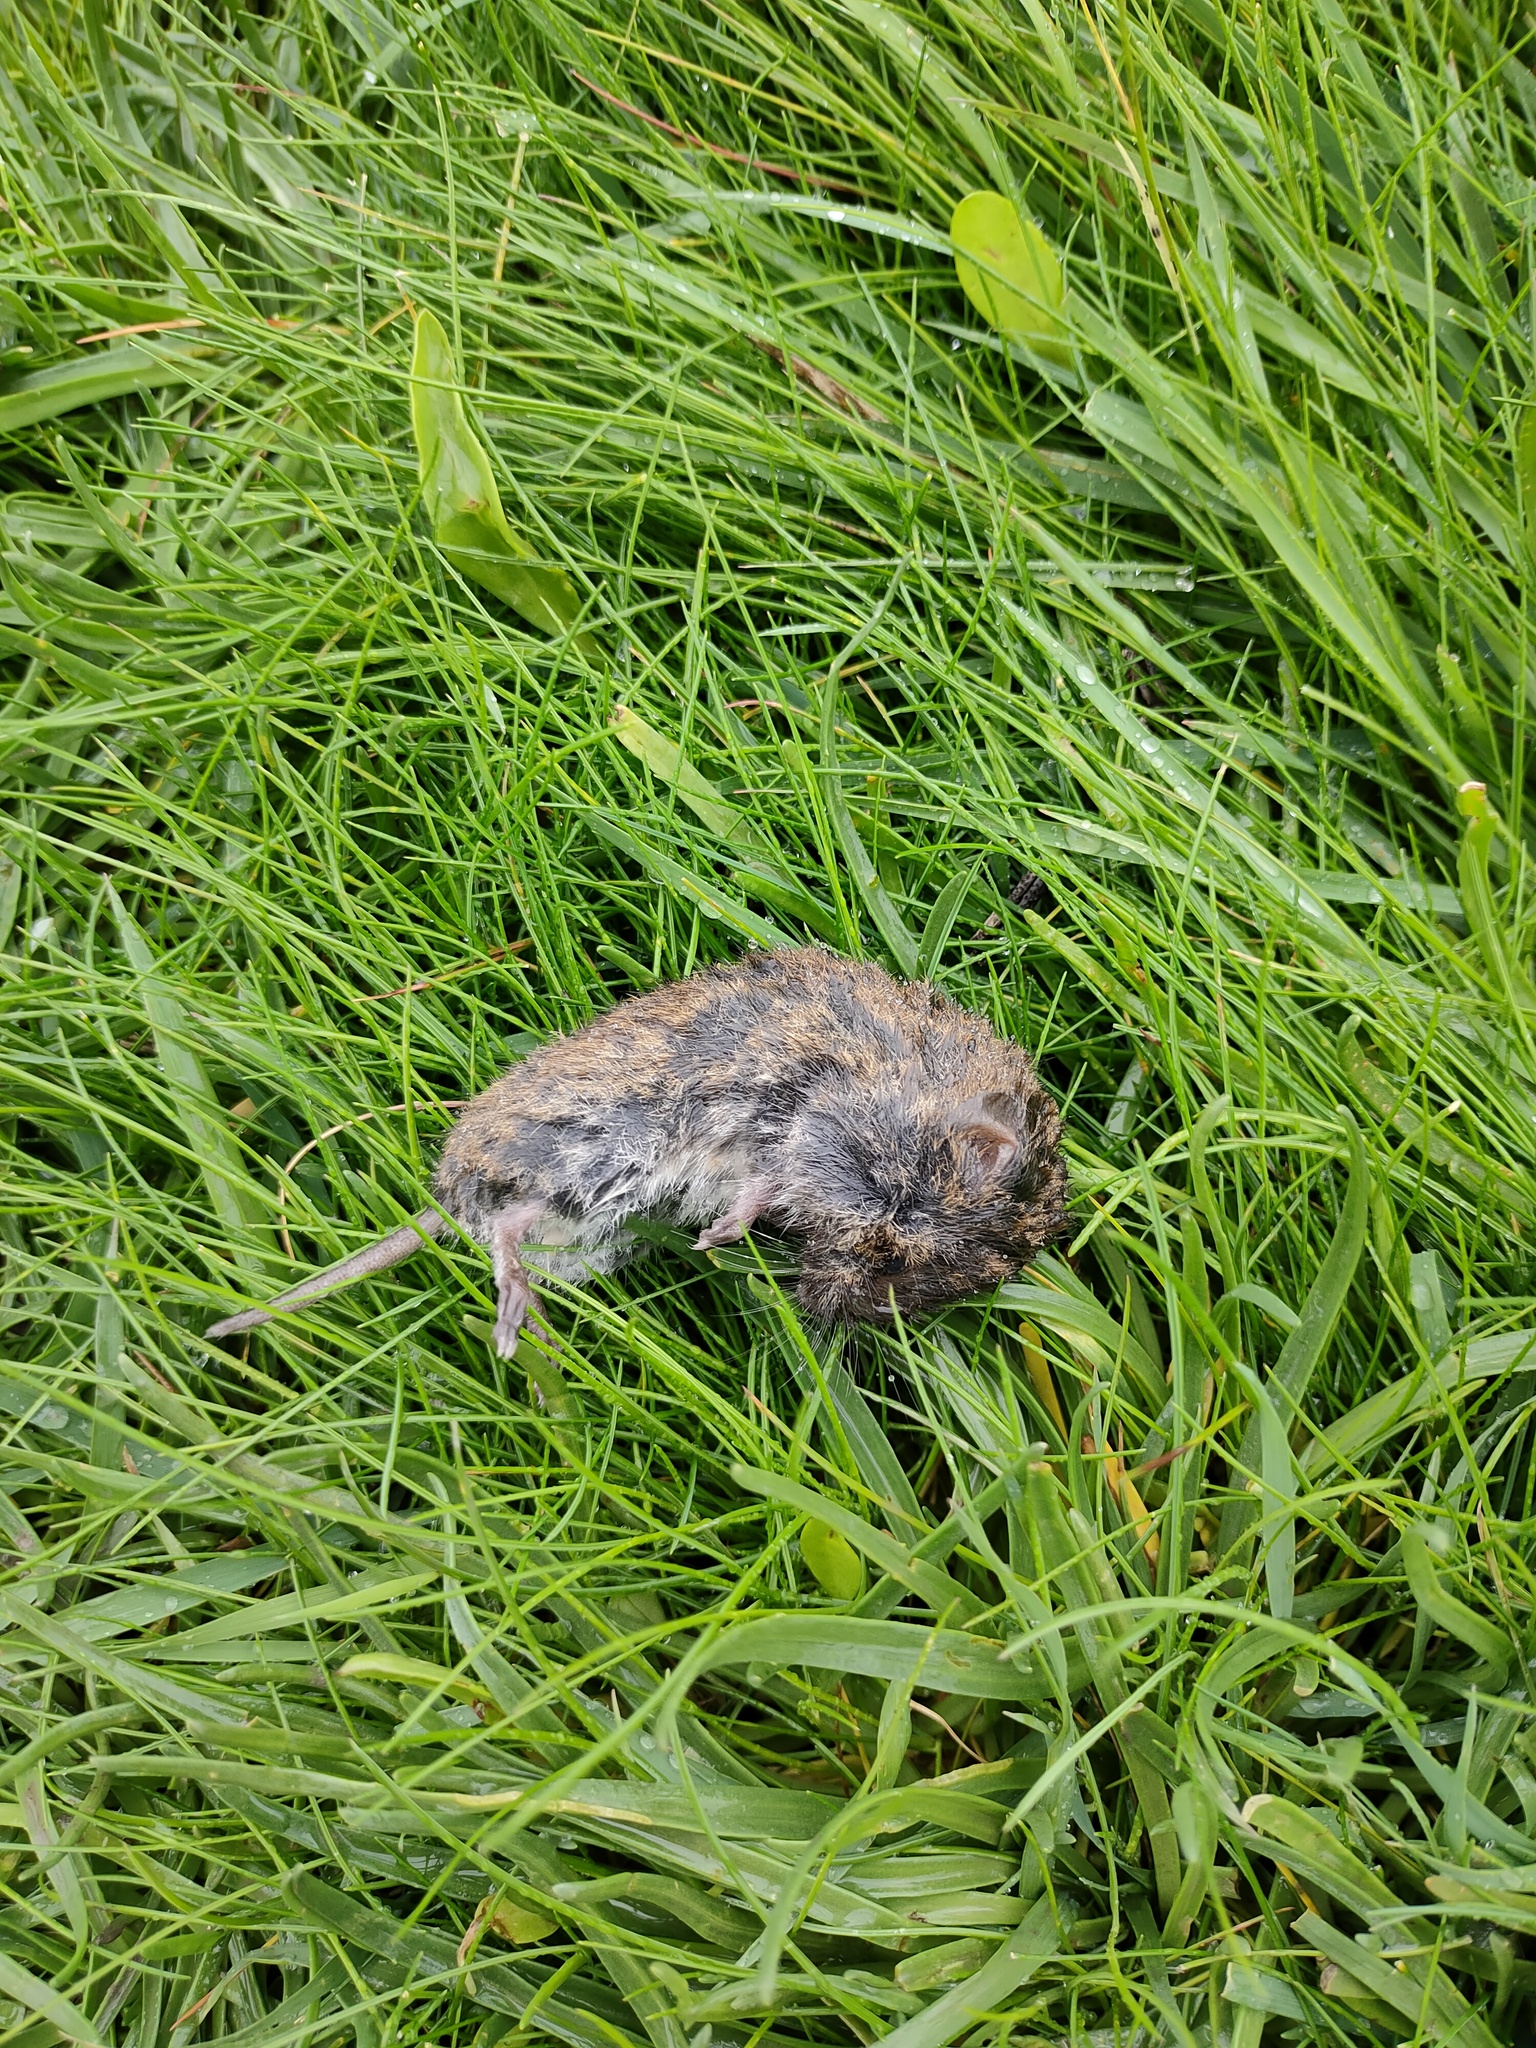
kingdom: Animalia
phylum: Chordata
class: Mammalia
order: Rodentia
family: Cricetidae
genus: Microtus
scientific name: Microtus agrestis
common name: Field vole
